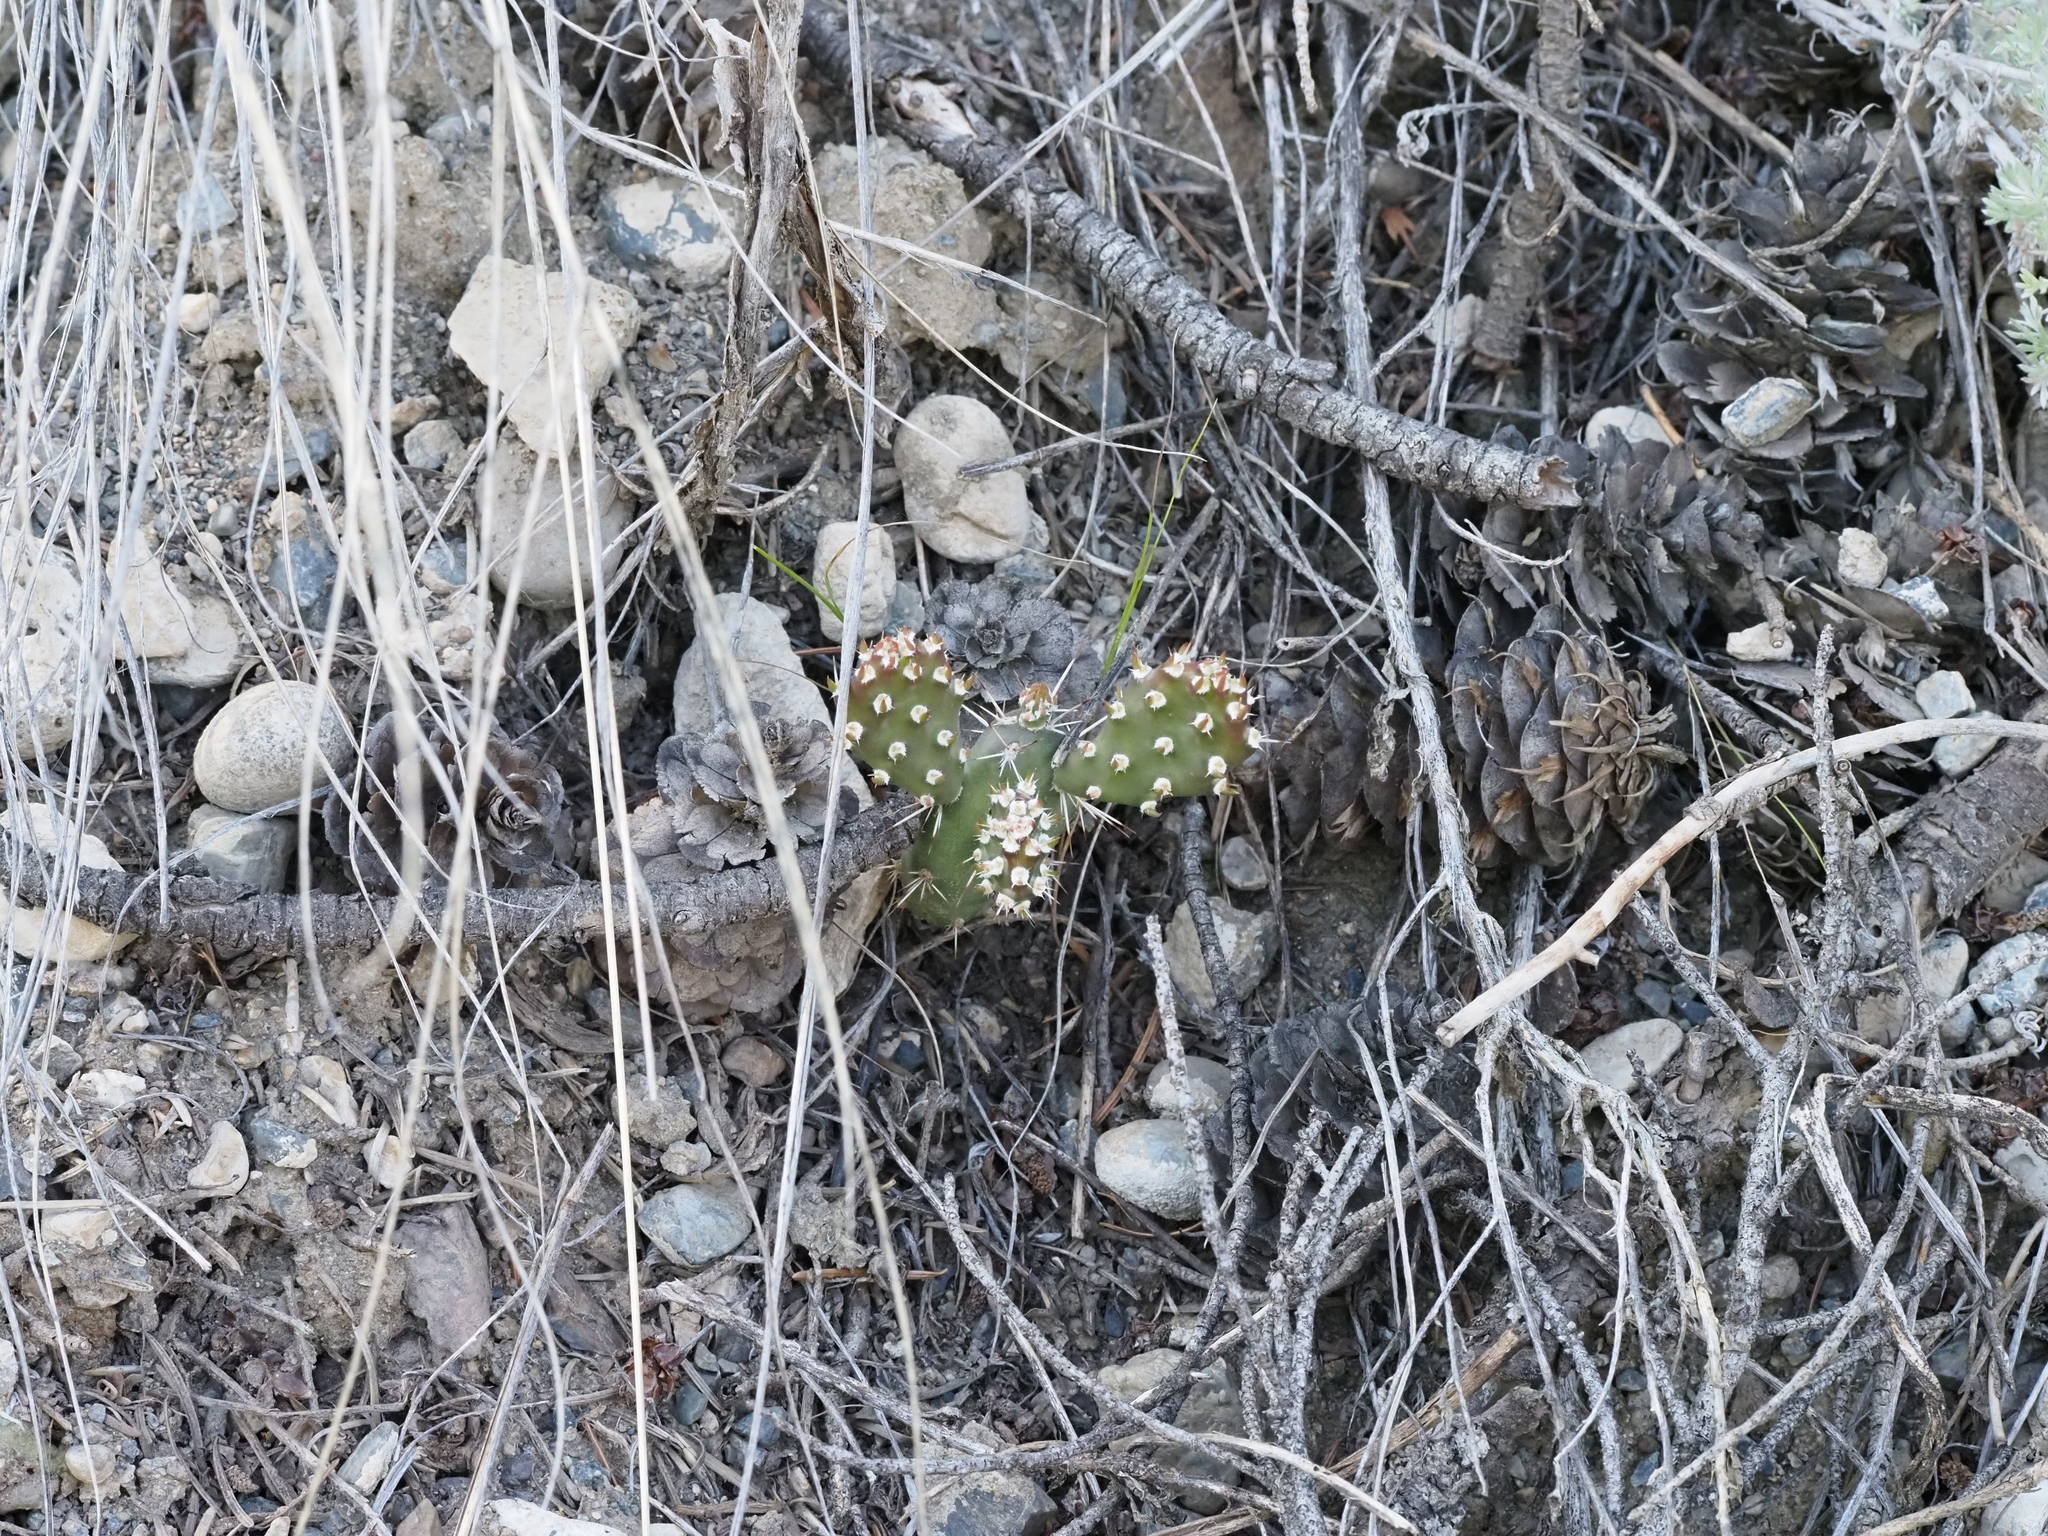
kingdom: Plantae
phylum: Tracheophyta
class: Magnoliopsida
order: Caryophyllales
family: Cactaceae
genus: Opuntia
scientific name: Opuntia fragilis
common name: Brittle cactus
